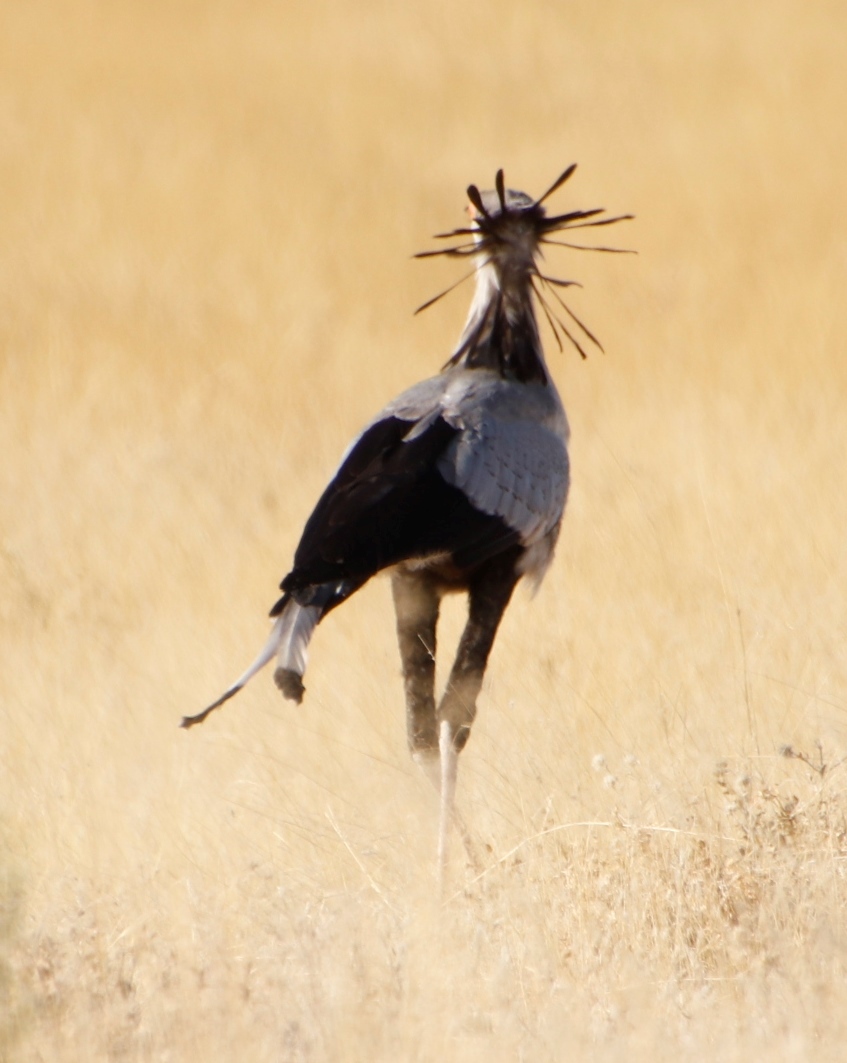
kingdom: Animalia
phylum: Chordata
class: Aves
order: Accipitriformes
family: Sagittariidae
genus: Sagittarius
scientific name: Sagittarius serpentarius
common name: Secretarybird
